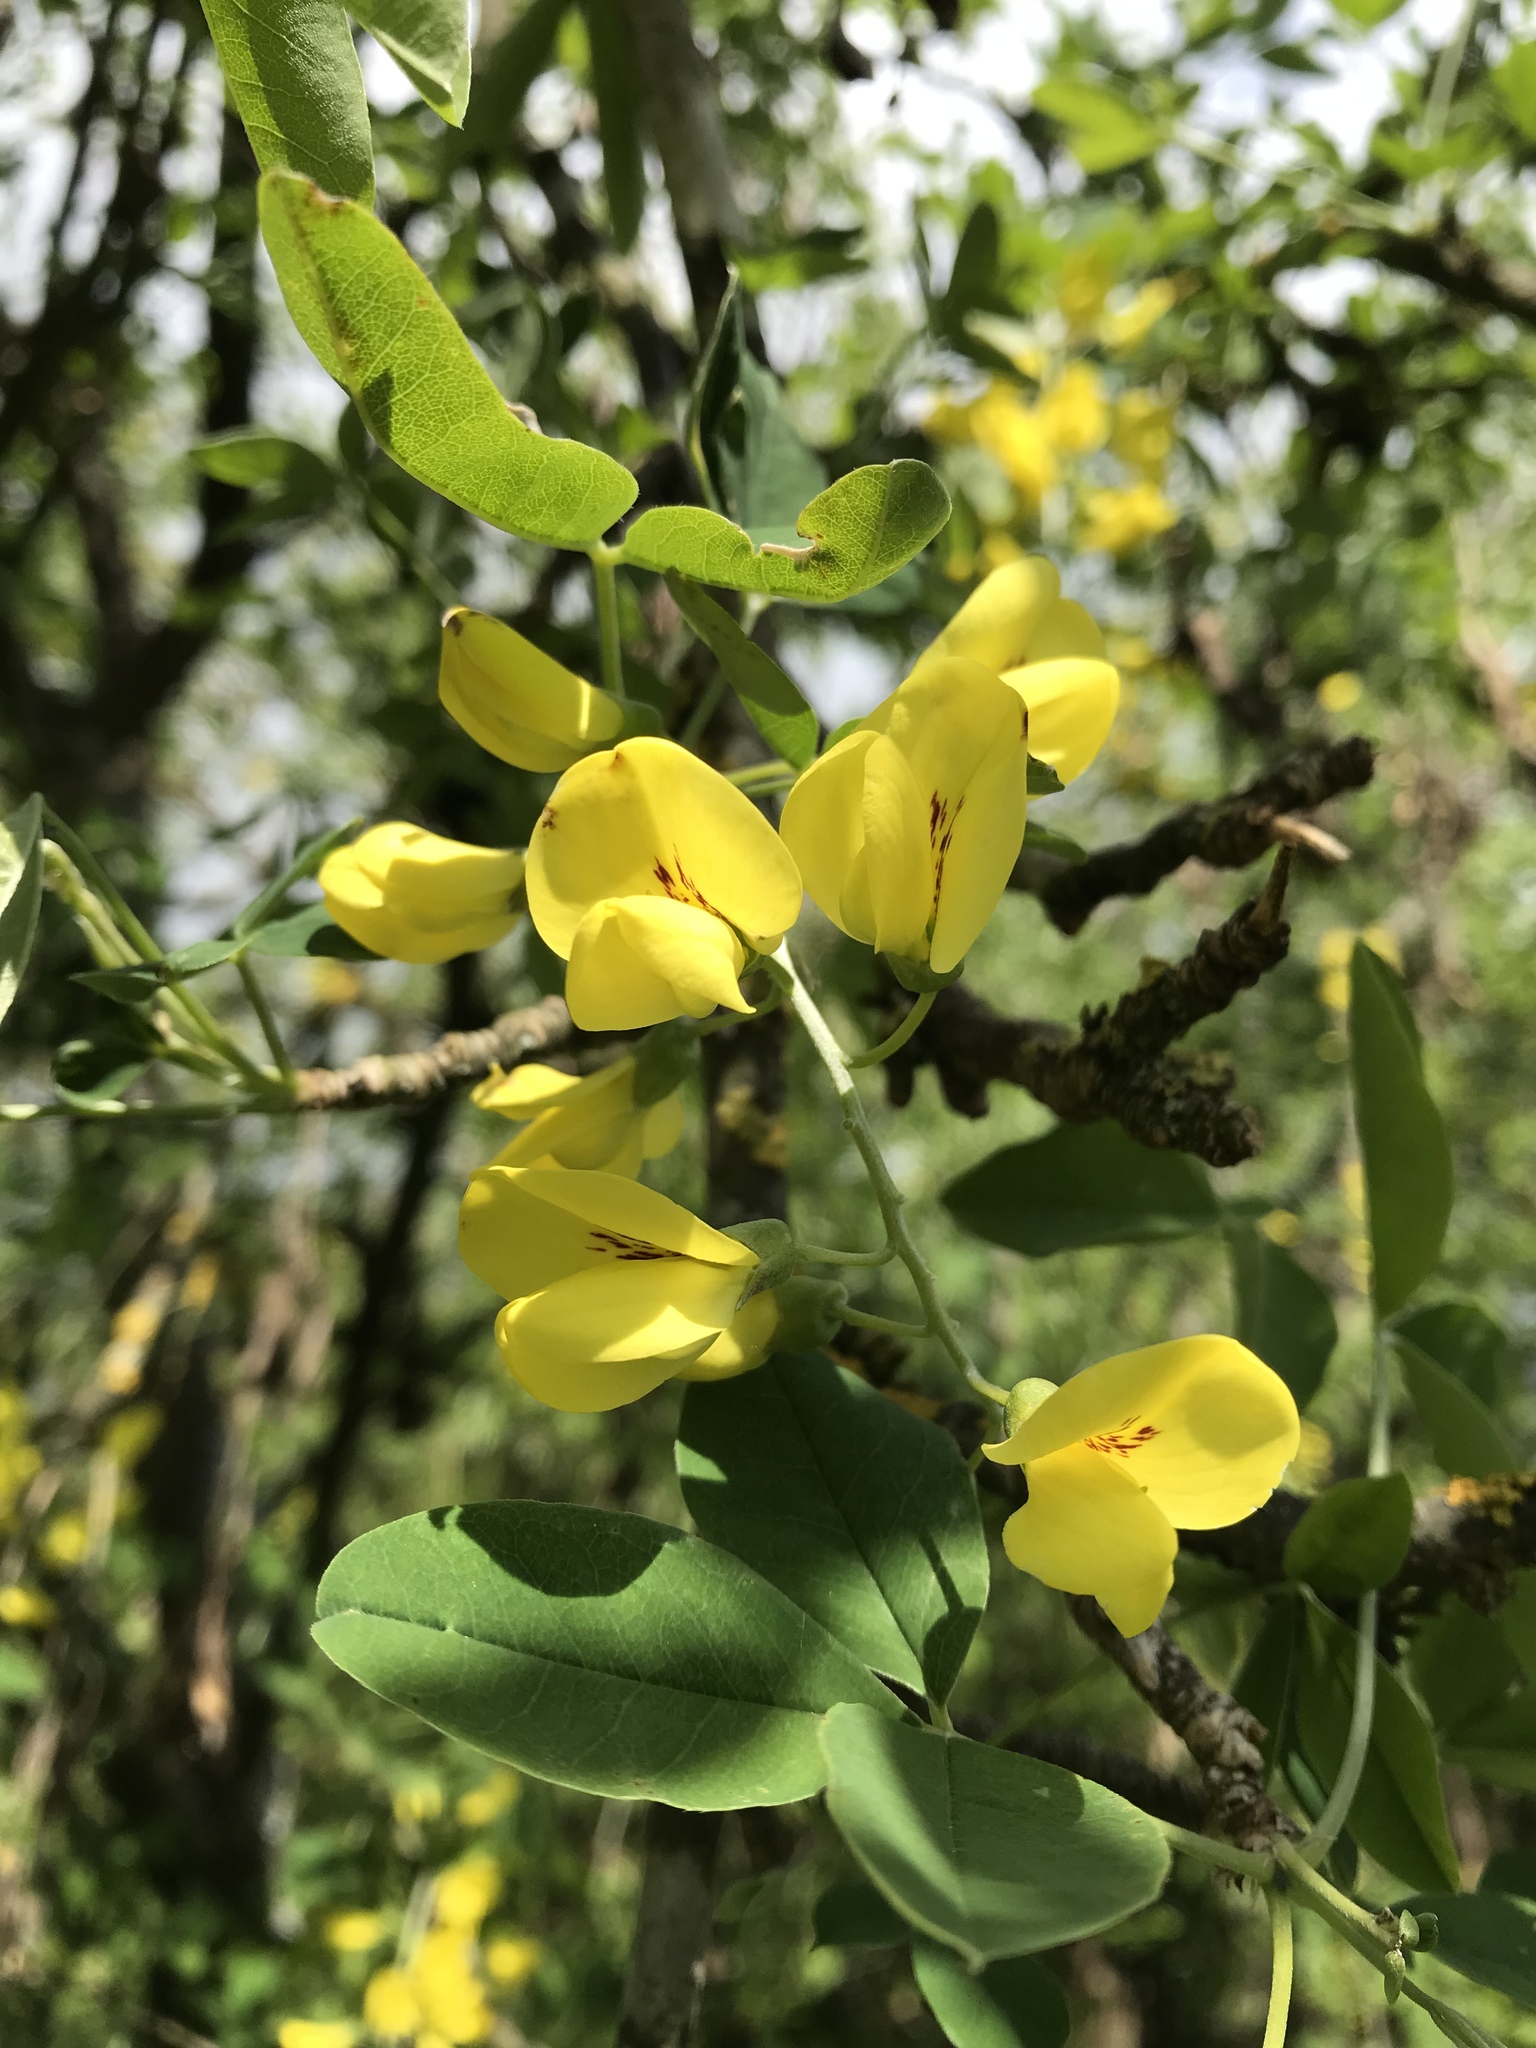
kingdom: Plantae
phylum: Tracheophyta
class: Magnoliopsida
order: Fabales
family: Fabaceae
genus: Laburnum
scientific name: Laburnum anagyroides
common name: Laburnum
